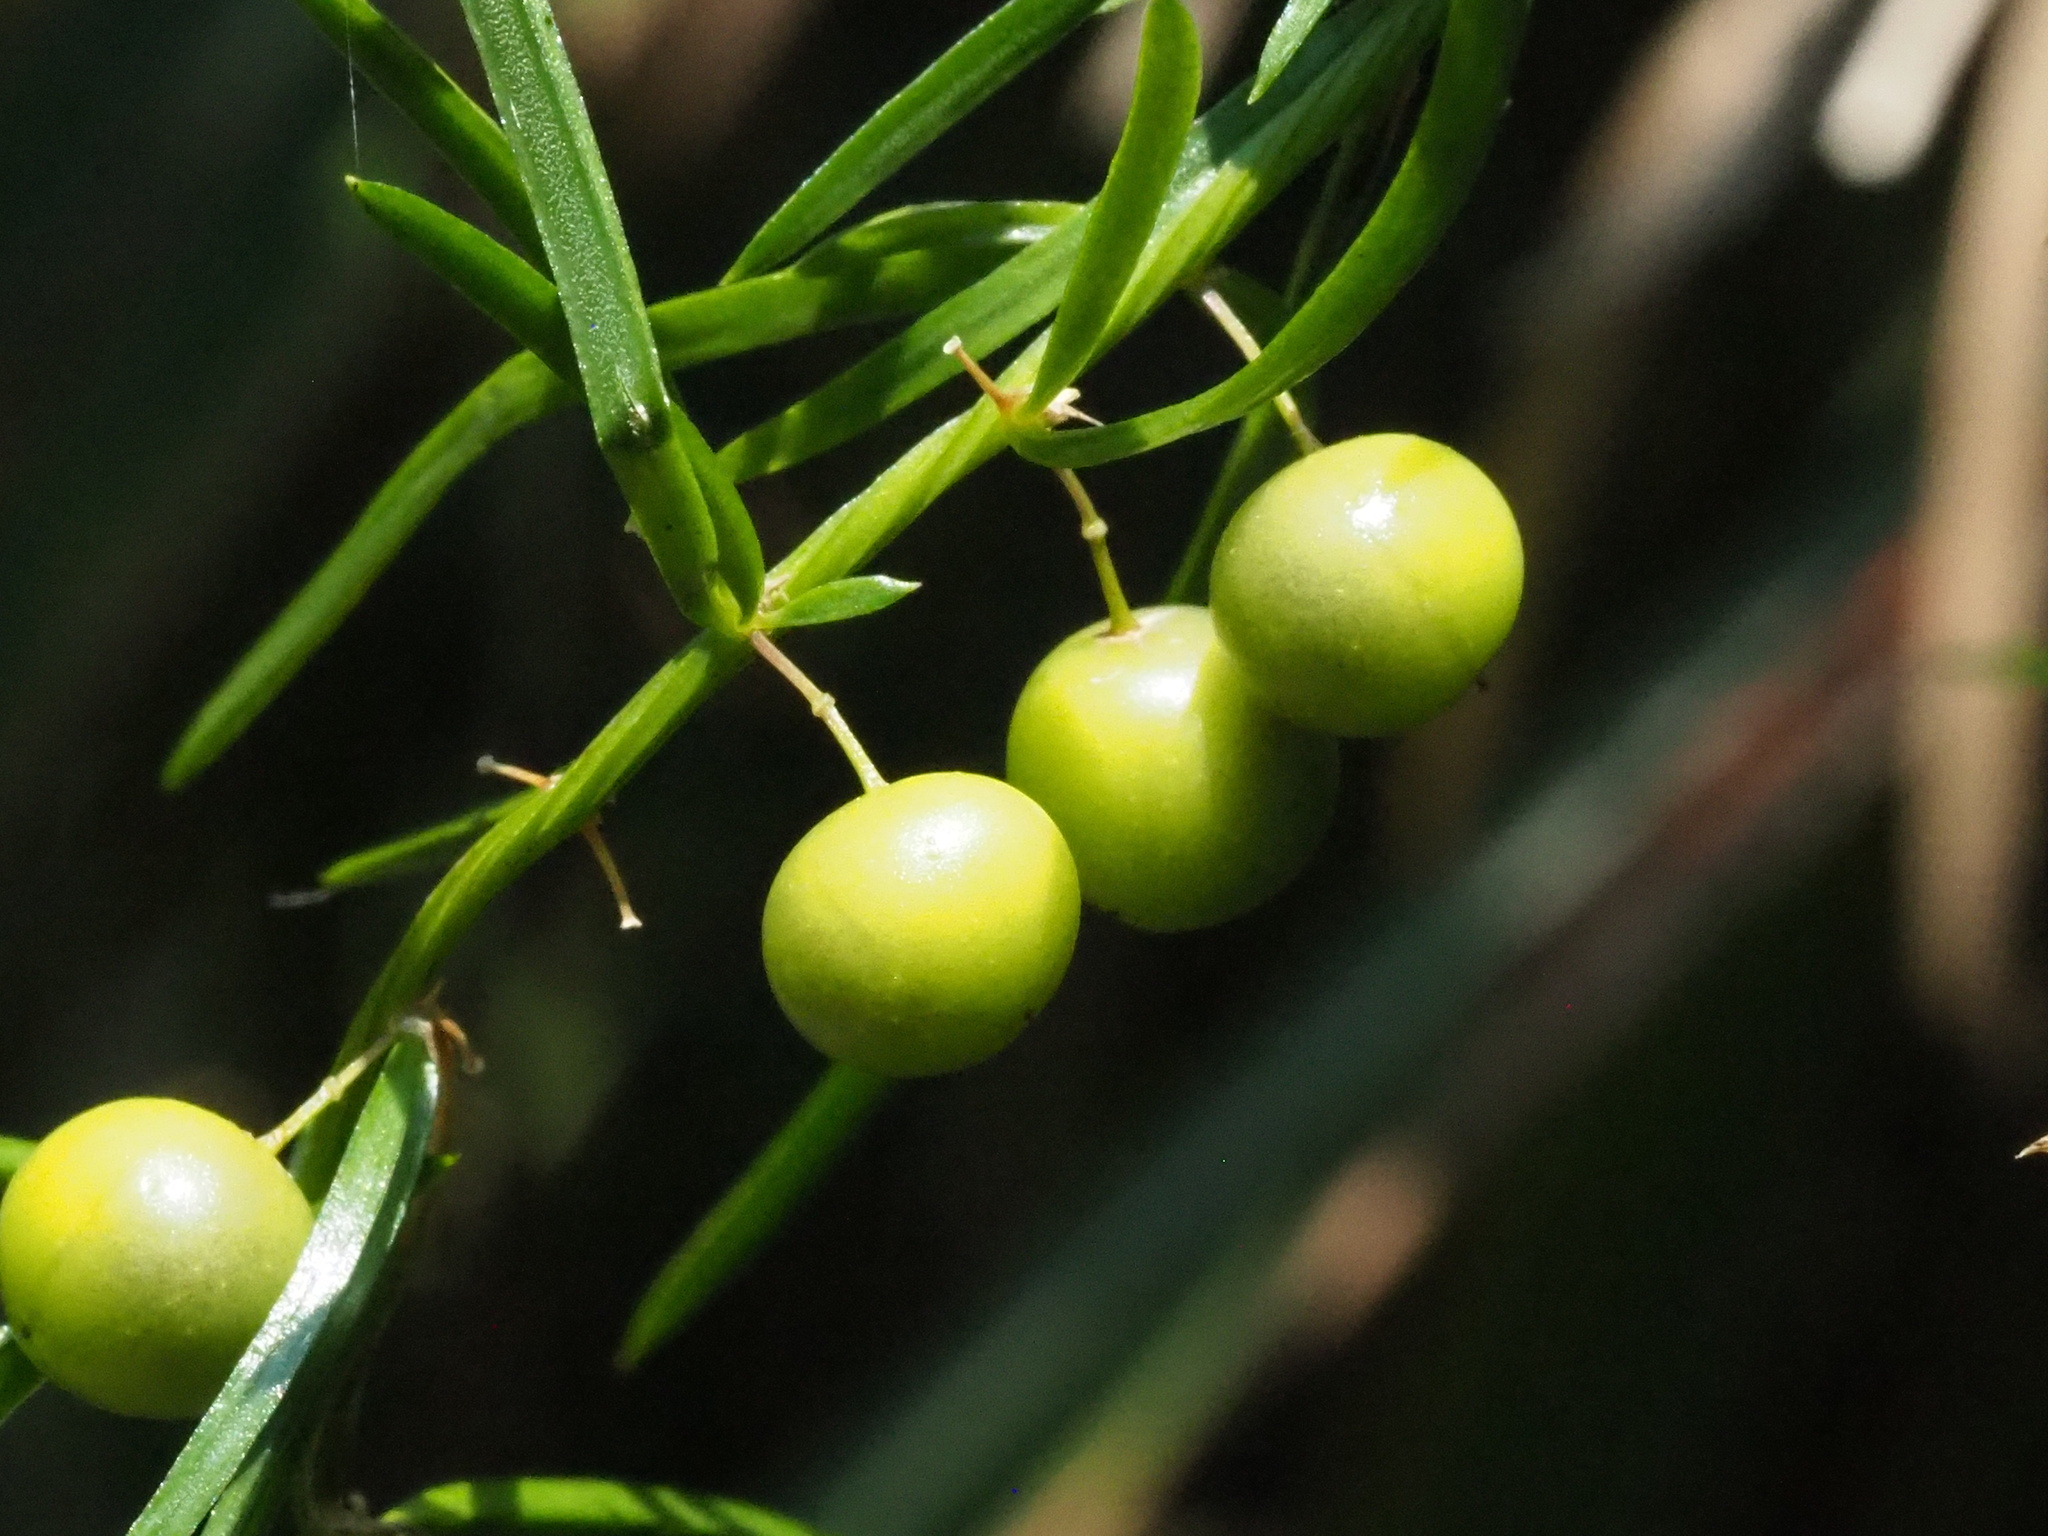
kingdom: Plantae
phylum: Tracheophyta
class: Liliopsida
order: Asparagales
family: Asparagaceae
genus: Asparagus
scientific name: Asparagus cochinchinensis
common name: Chinese asparagus
